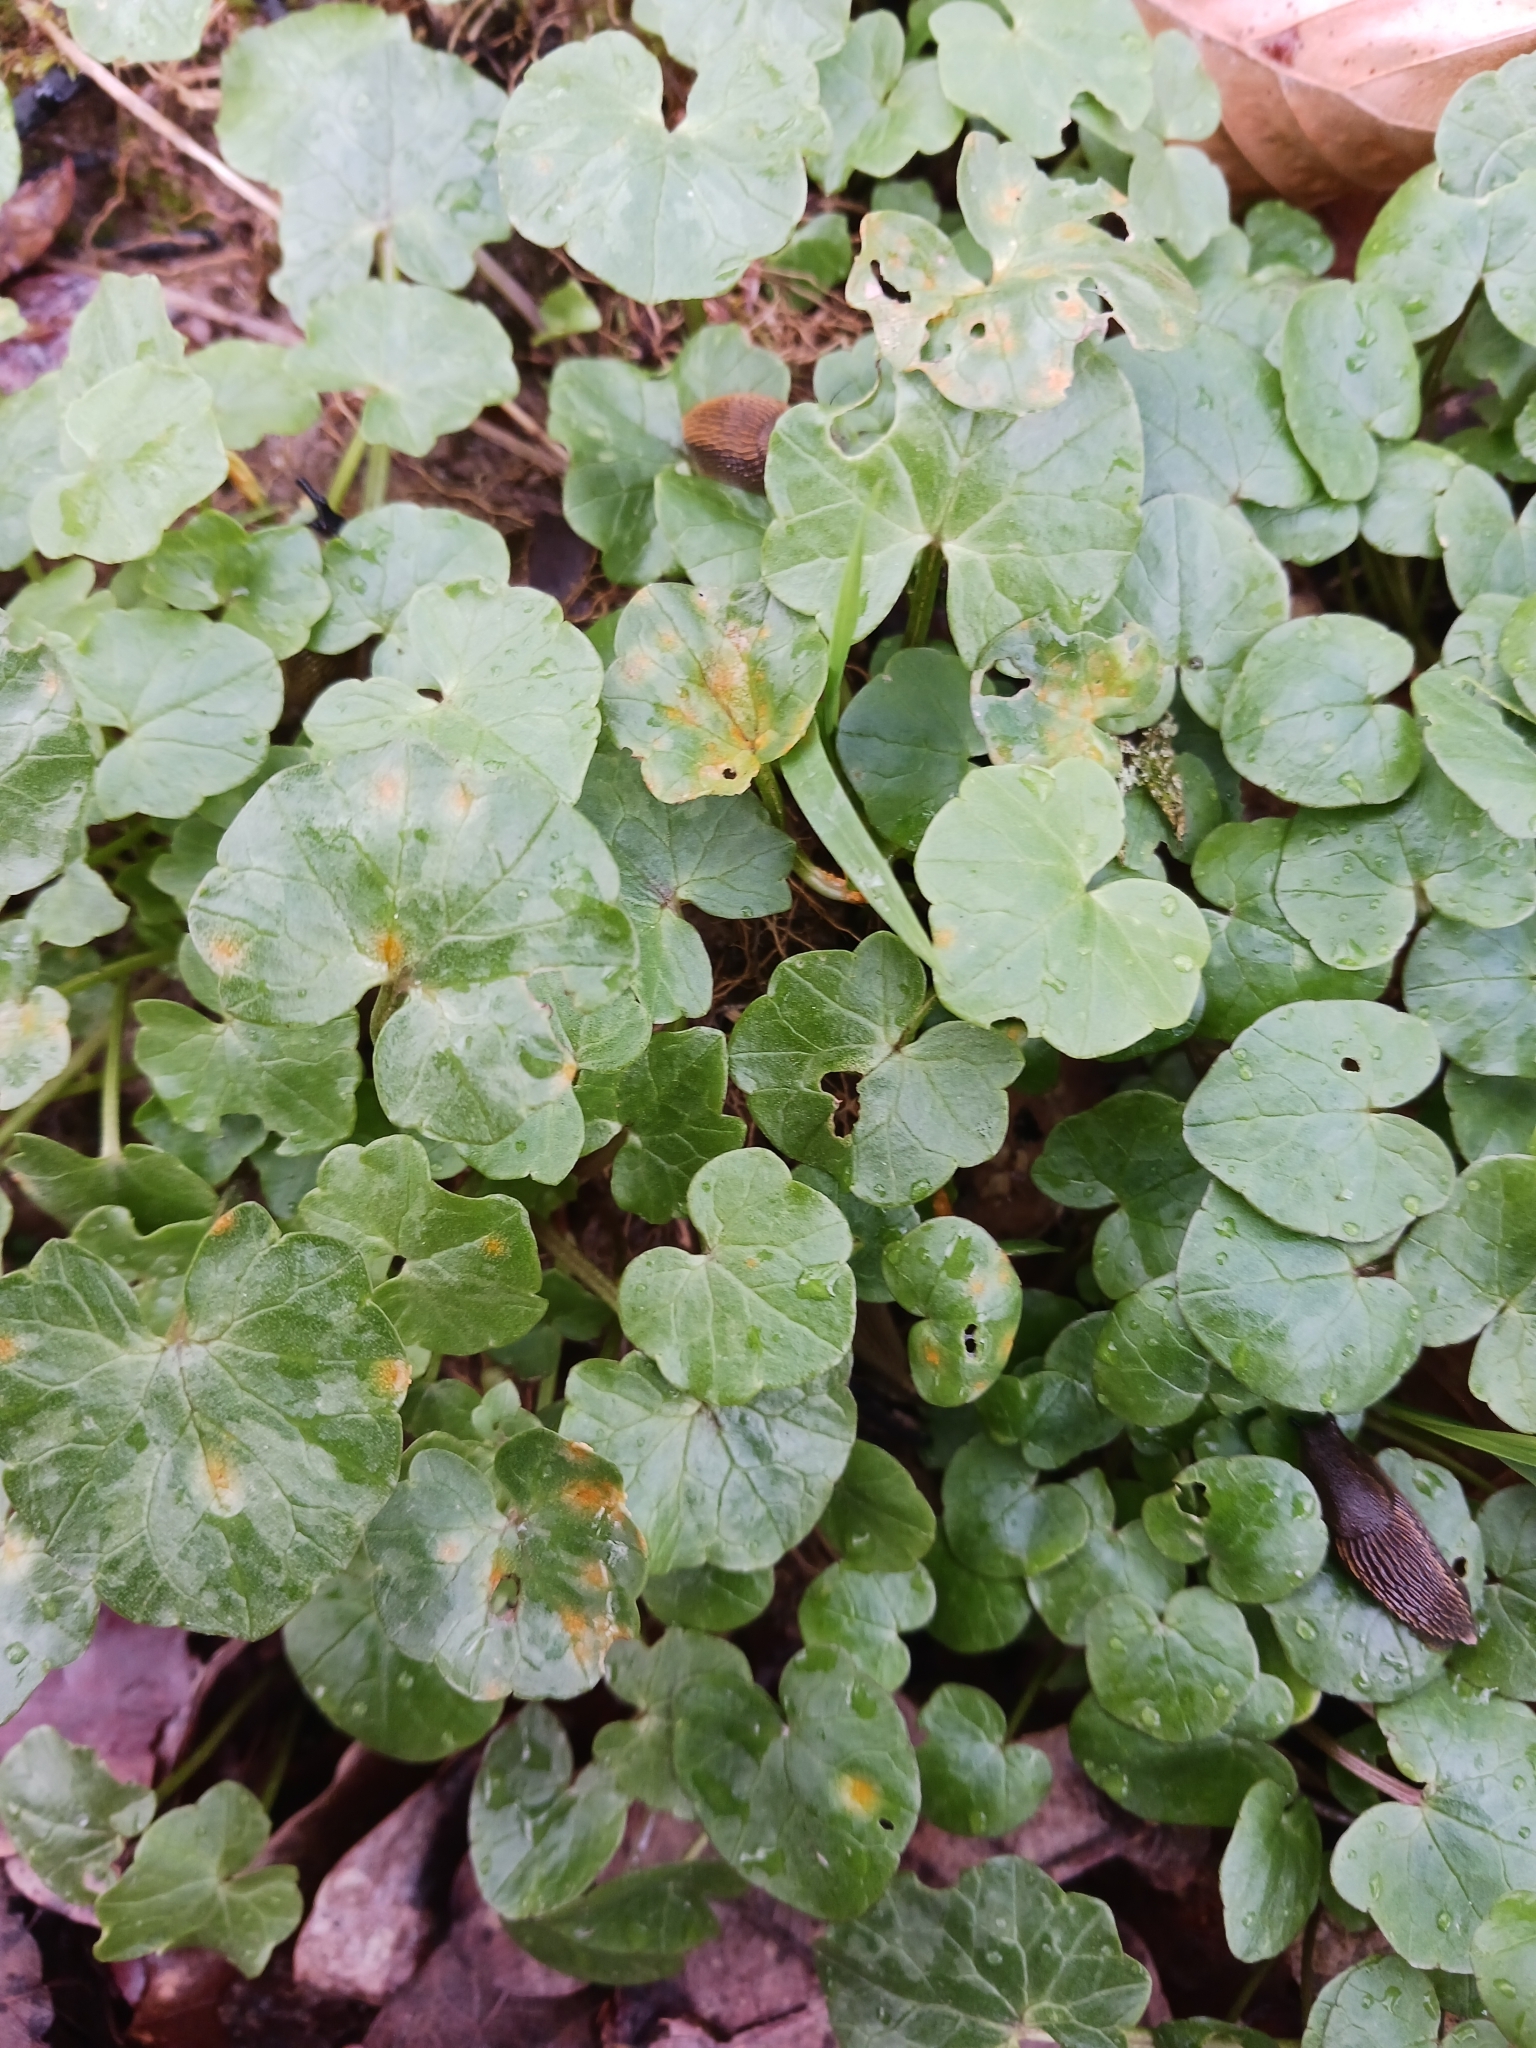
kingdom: Fungi
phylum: Basidiomycota
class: Pucciniomycetes
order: Pucciniales
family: Pucciniaceae
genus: Uromyces
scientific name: Uromyces
